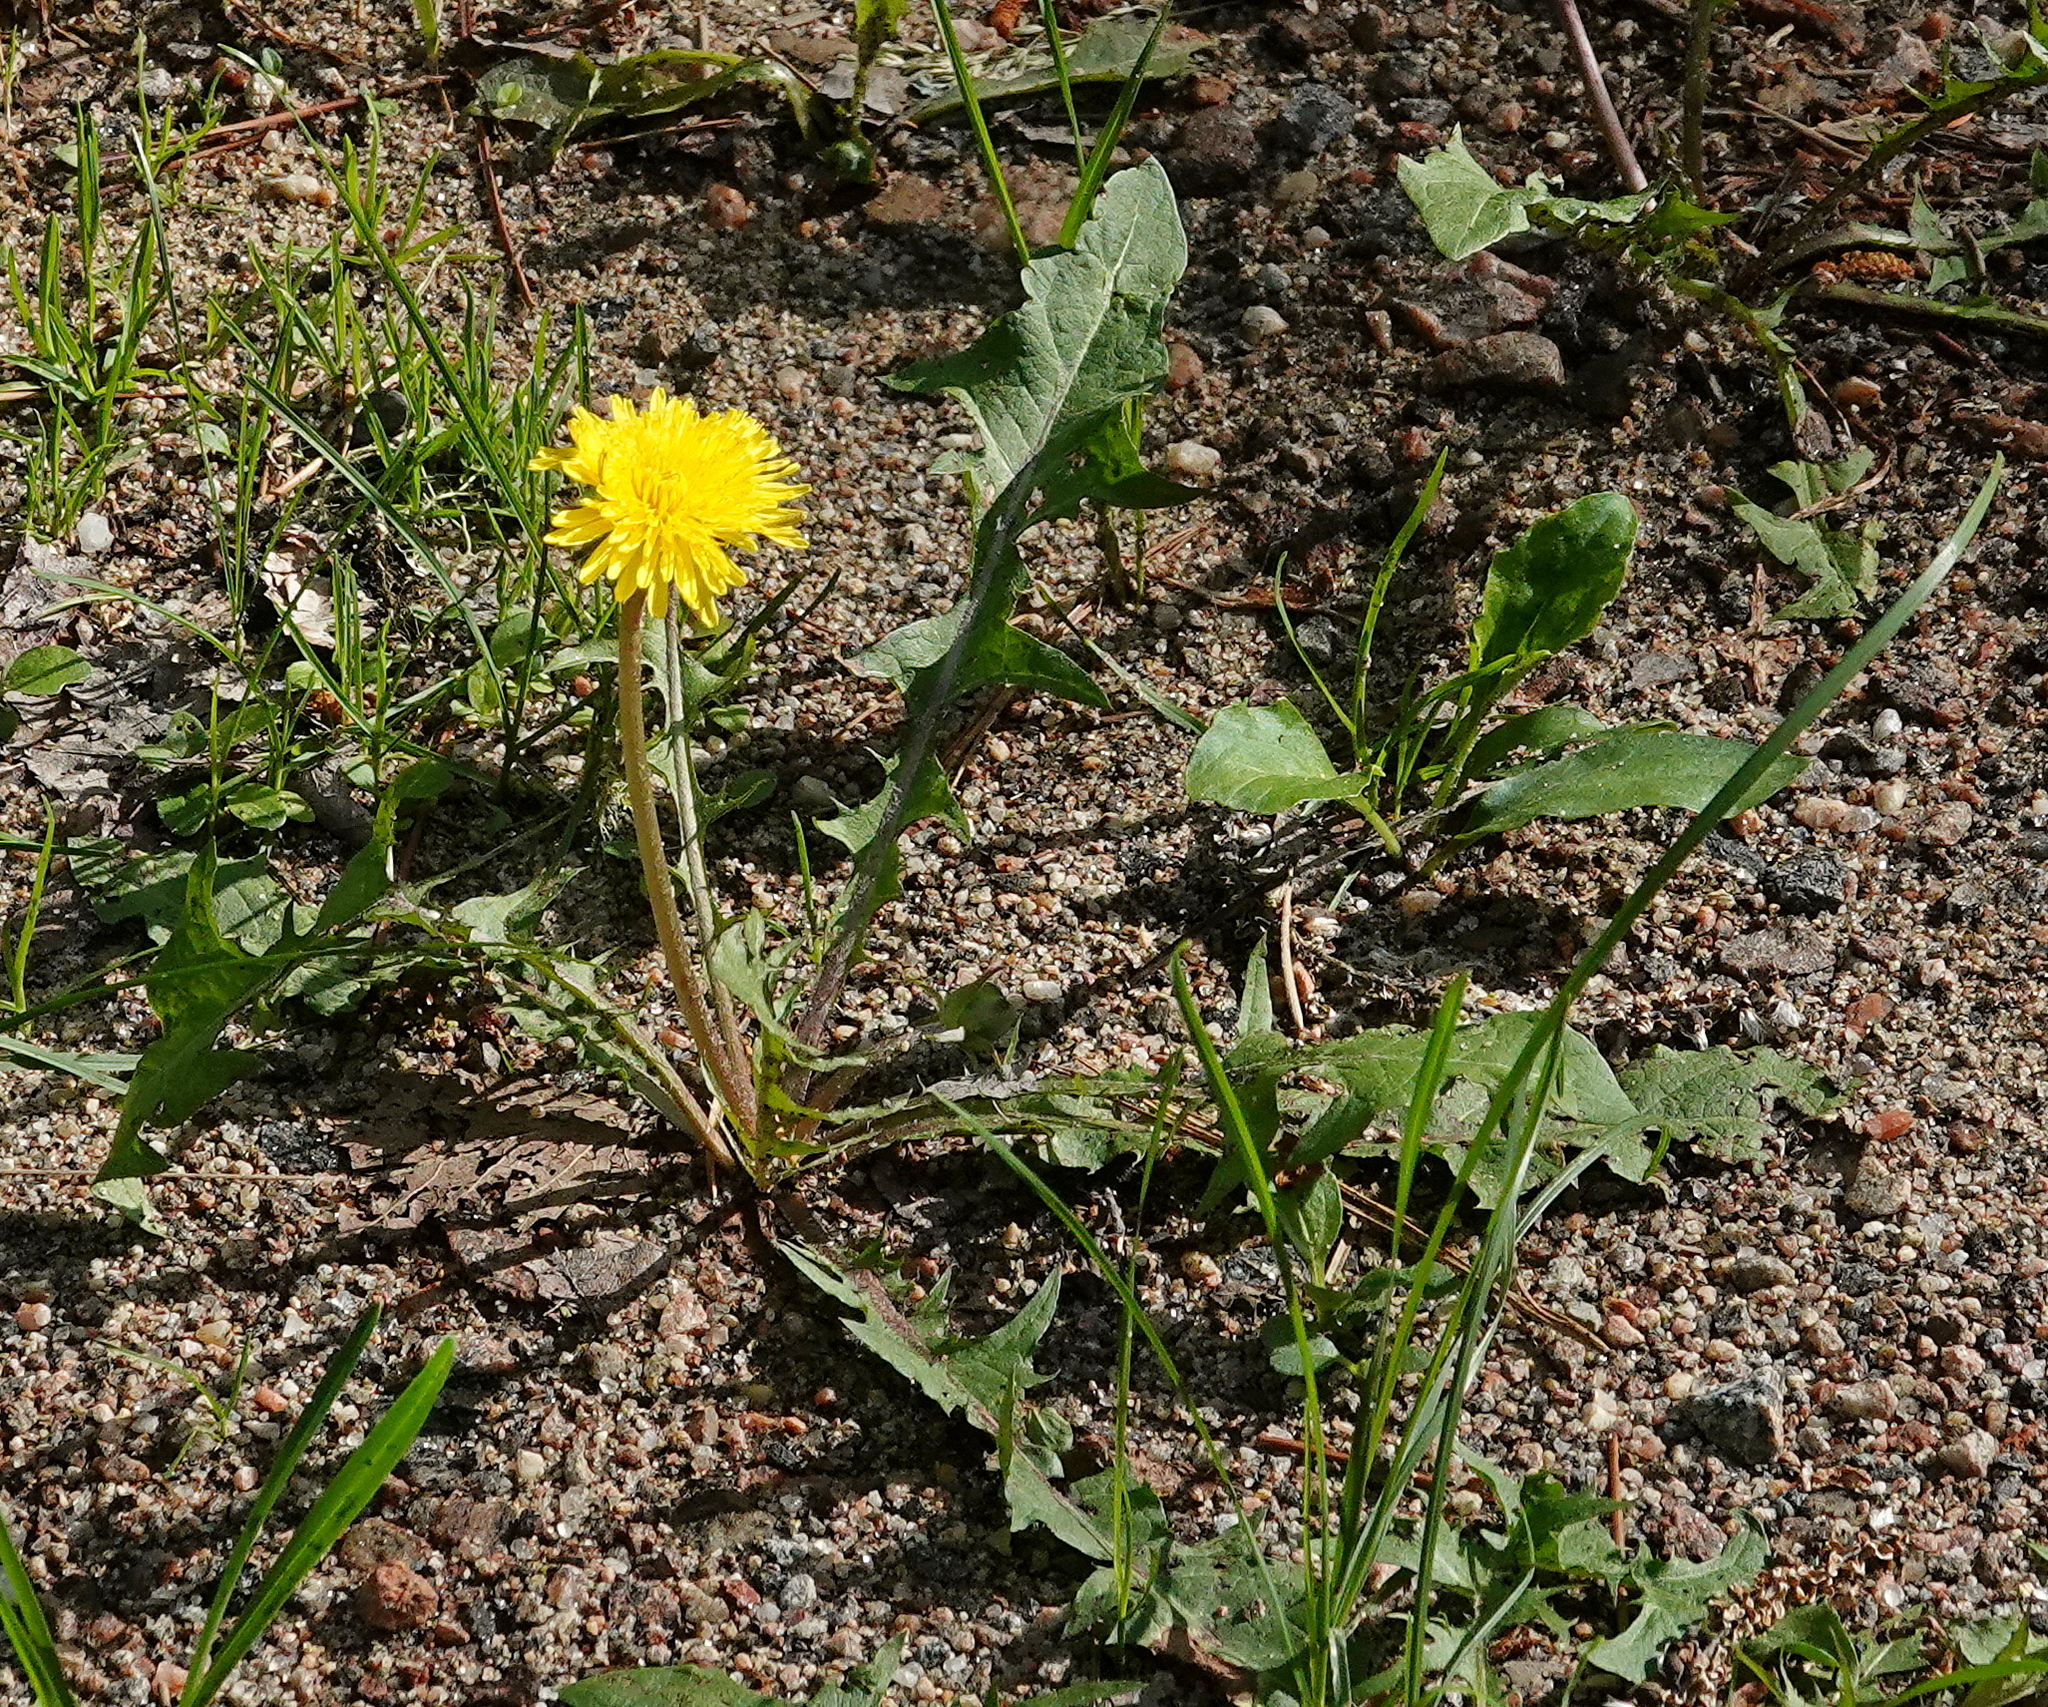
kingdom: Plantae
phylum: Tracheophyta
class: Magnoliopsida
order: Asterales
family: Asteraceae
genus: Taraxacum
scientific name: Taraxacum officinale
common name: Common dandelion
